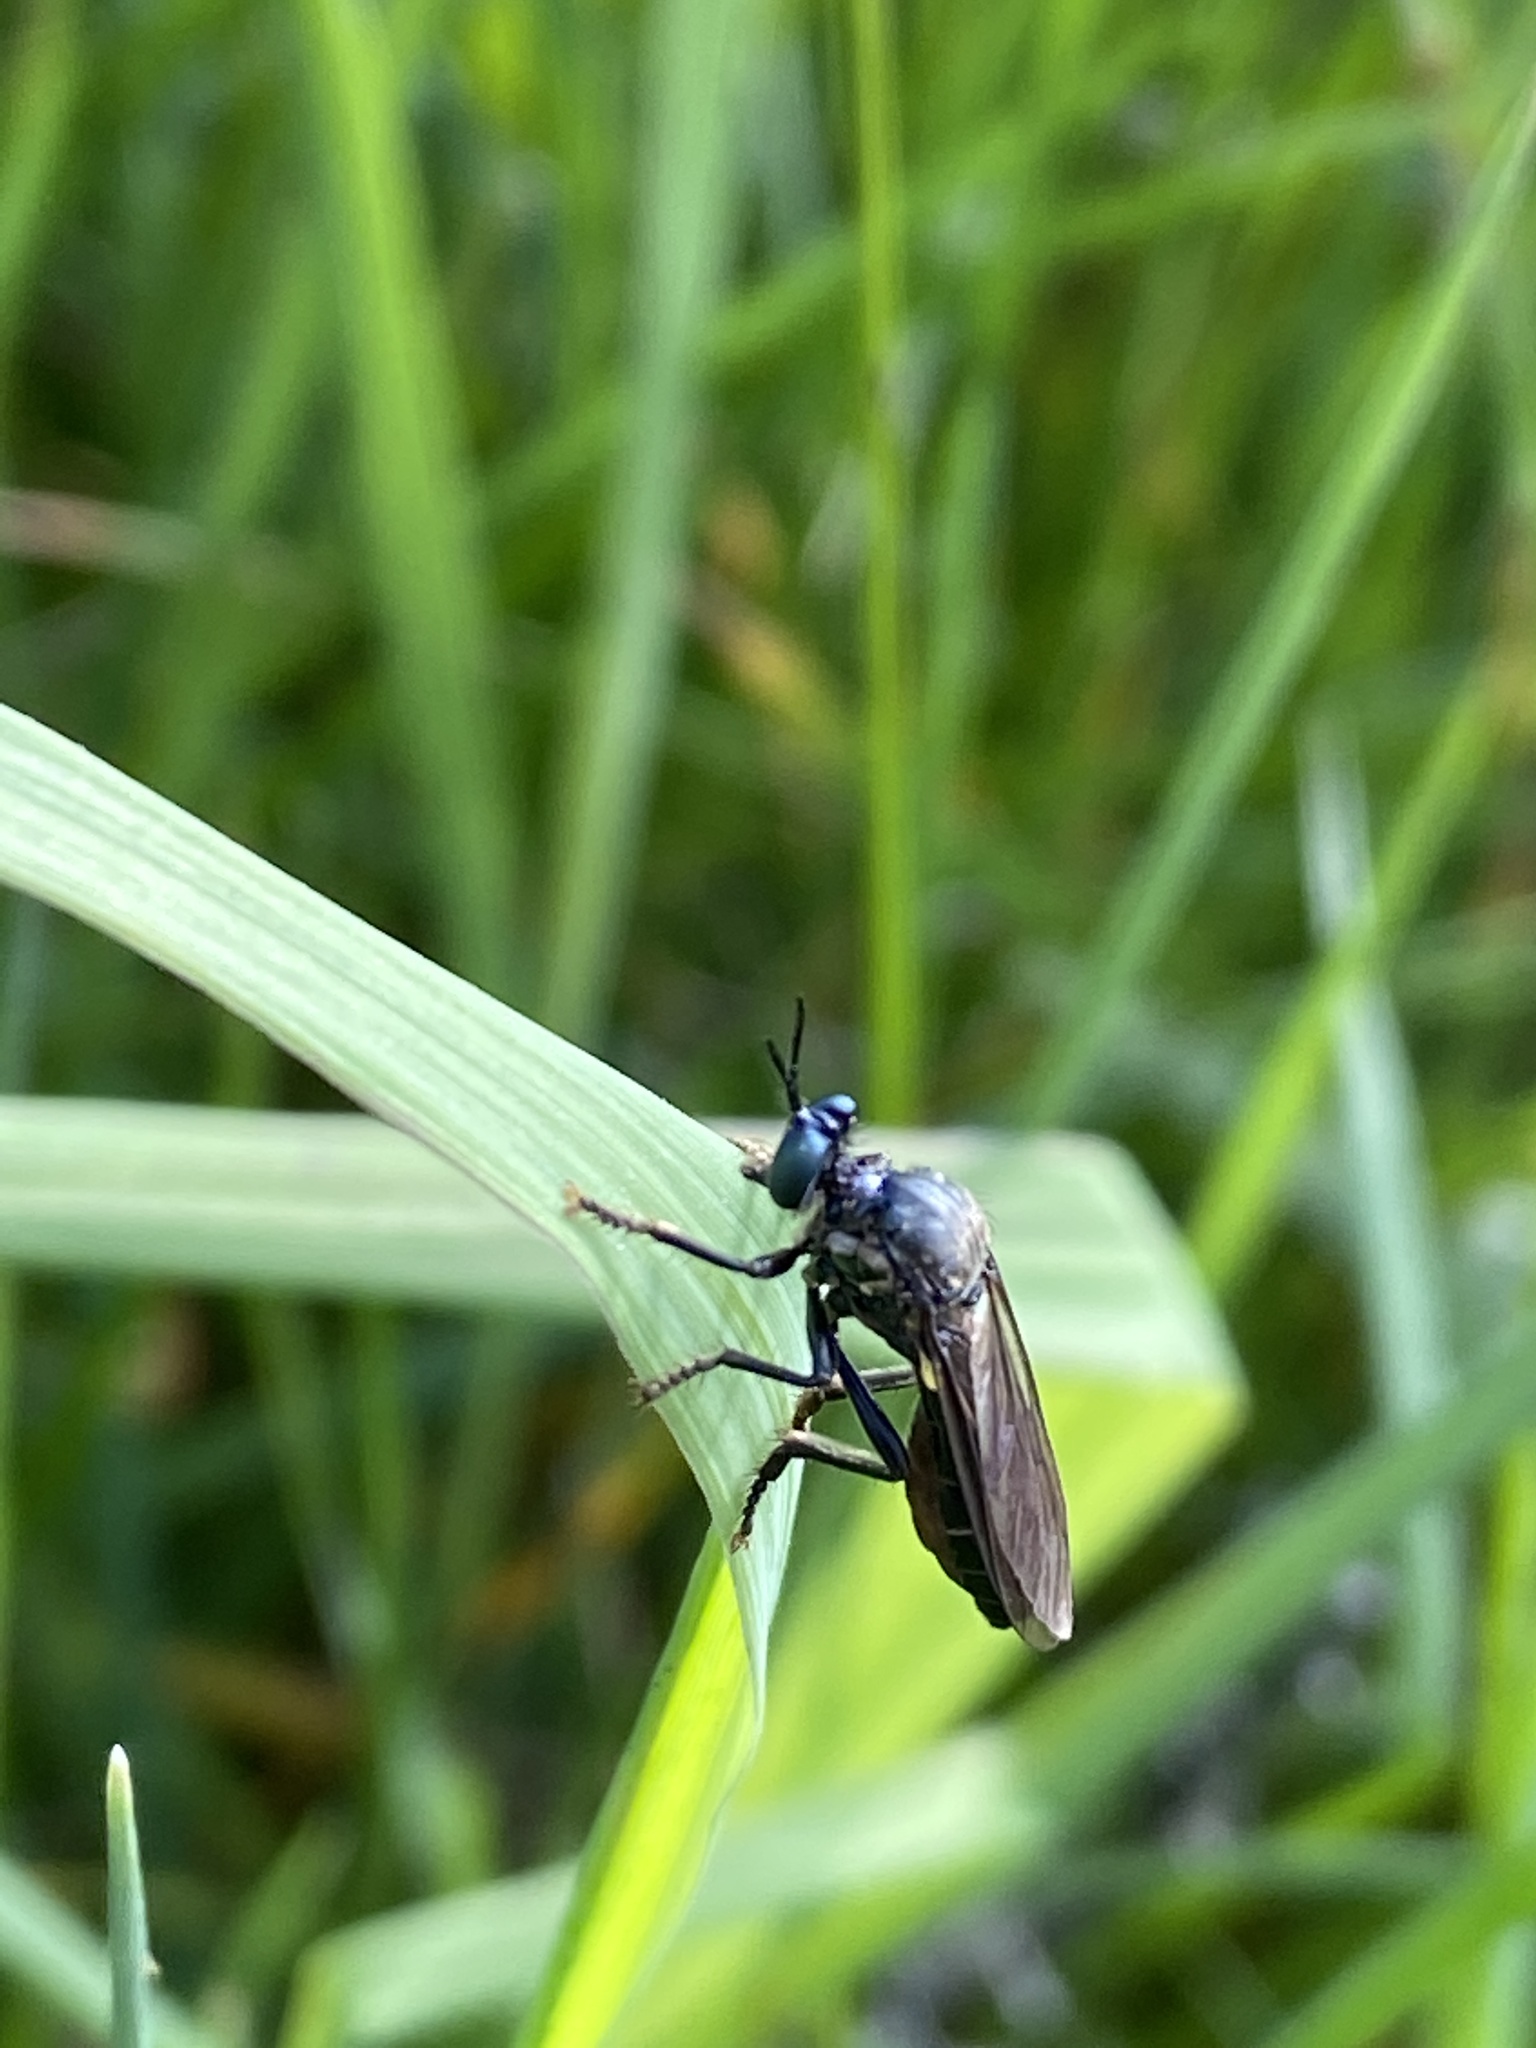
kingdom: Animalia
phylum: Arthropoda
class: Insecta
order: Diptera
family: Asilidae
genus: Dioctria
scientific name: Dioctria atricapilla
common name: Violet black-legged
